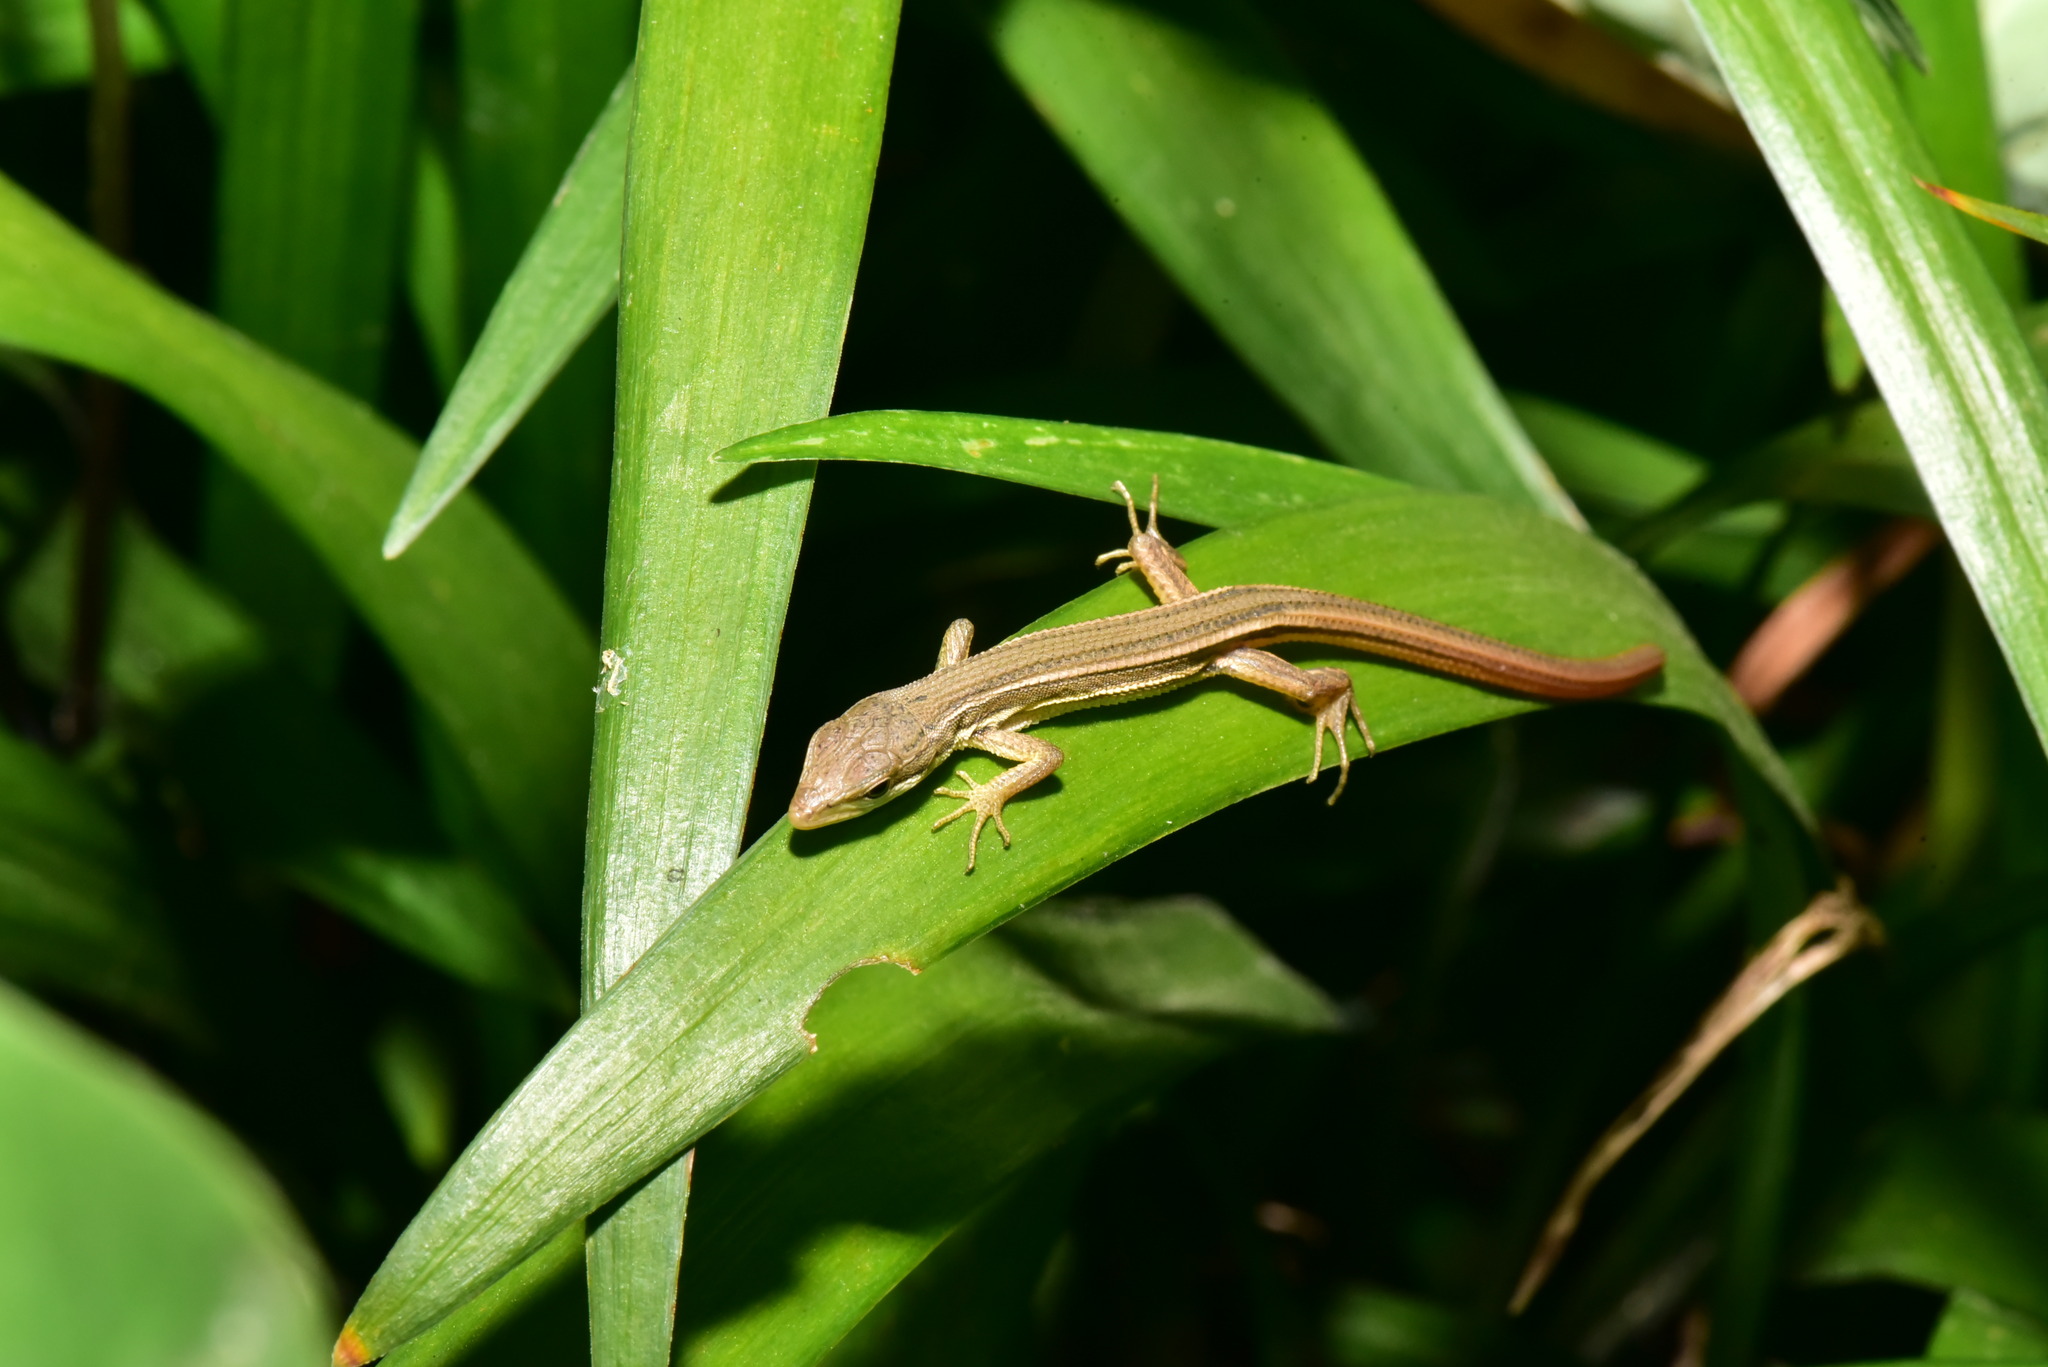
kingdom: Animalia
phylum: Chordata
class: Squamata
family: Lacertidae
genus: Takydromus
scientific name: Takydromus viridipunctatus
